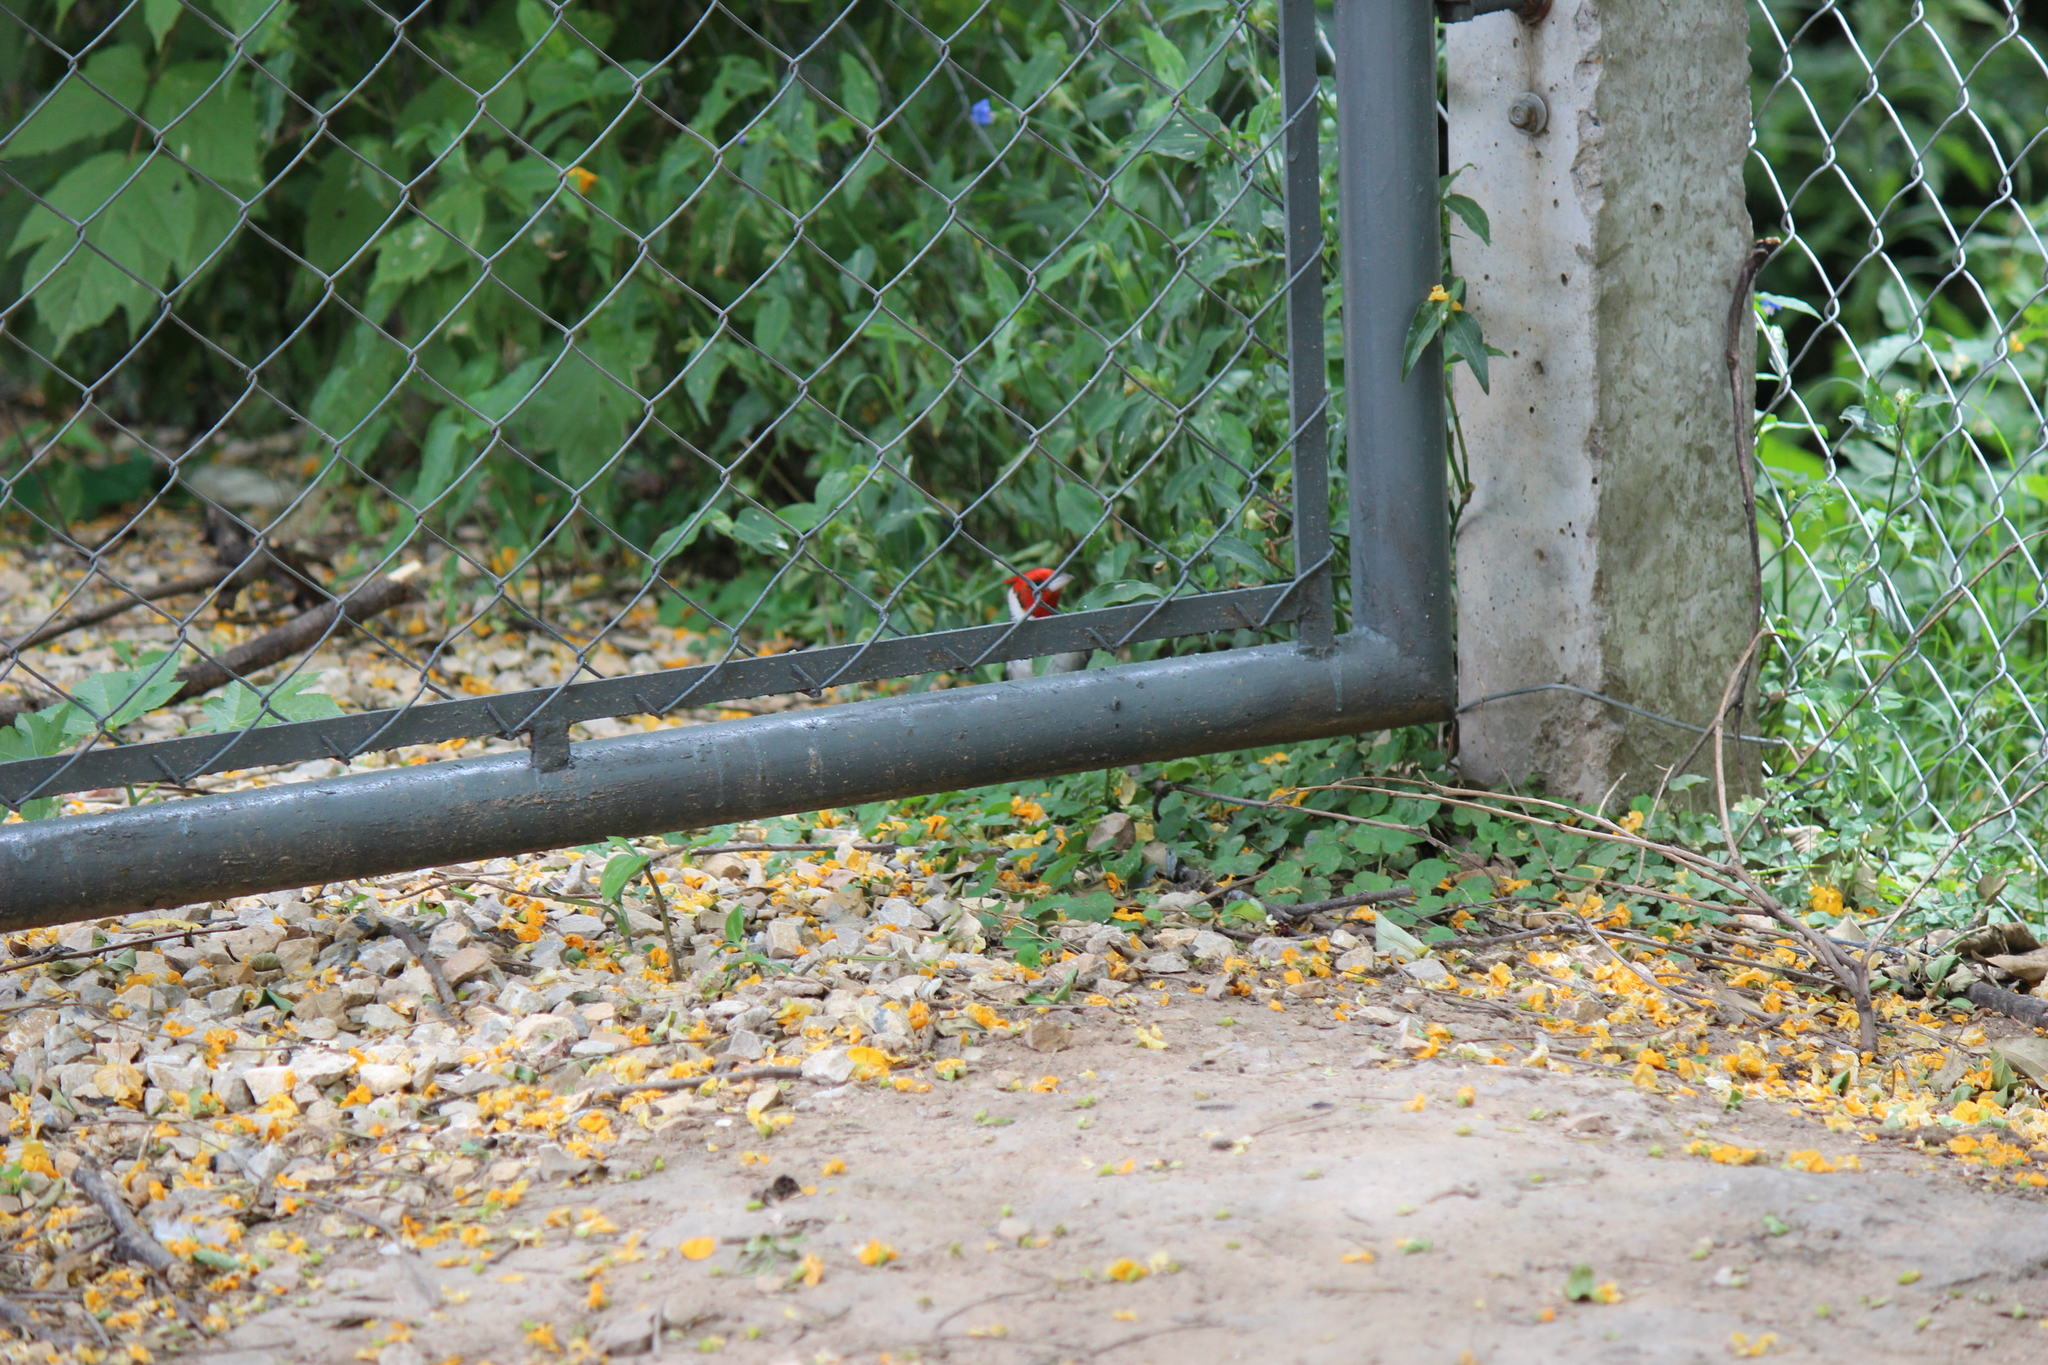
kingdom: Animalia
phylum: Chordata
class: Aves
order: Passeriformes
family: Thraupidae
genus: Paroaria
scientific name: Paroaria coronata
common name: Red-crested cardinal
